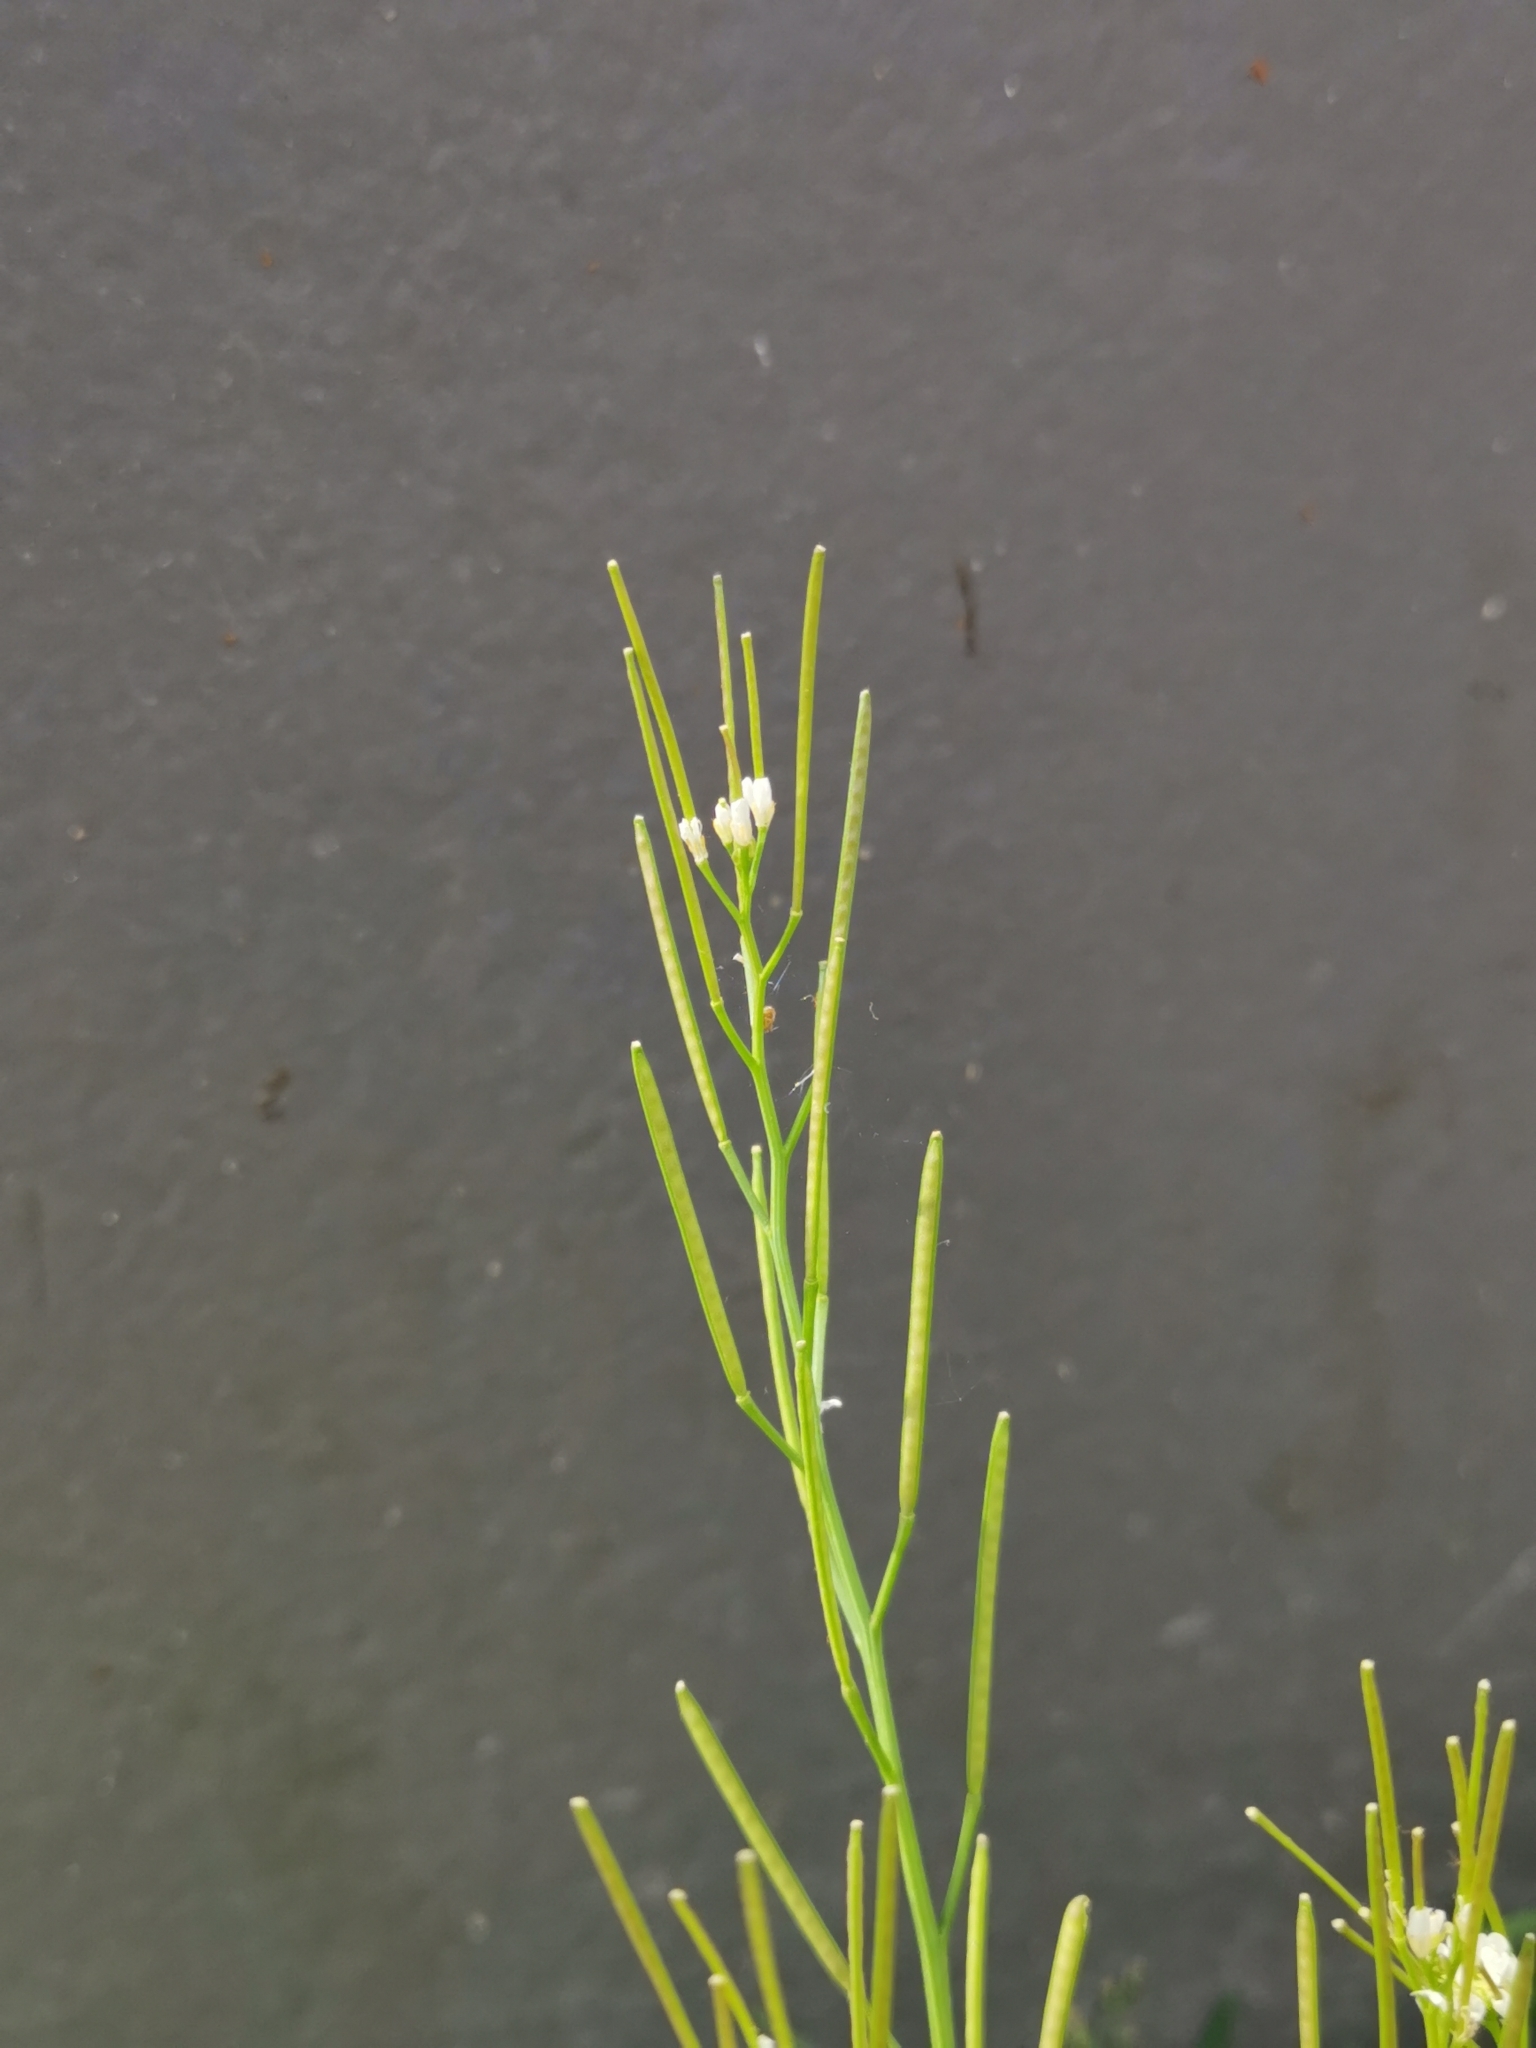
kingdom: Plantae
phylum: Tracheophyta
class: Magnoliopsida
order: Brassicales
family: Brassicaceae
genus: Cardamine
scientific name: Cardamine hirsuta
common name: Hairy bittercress
